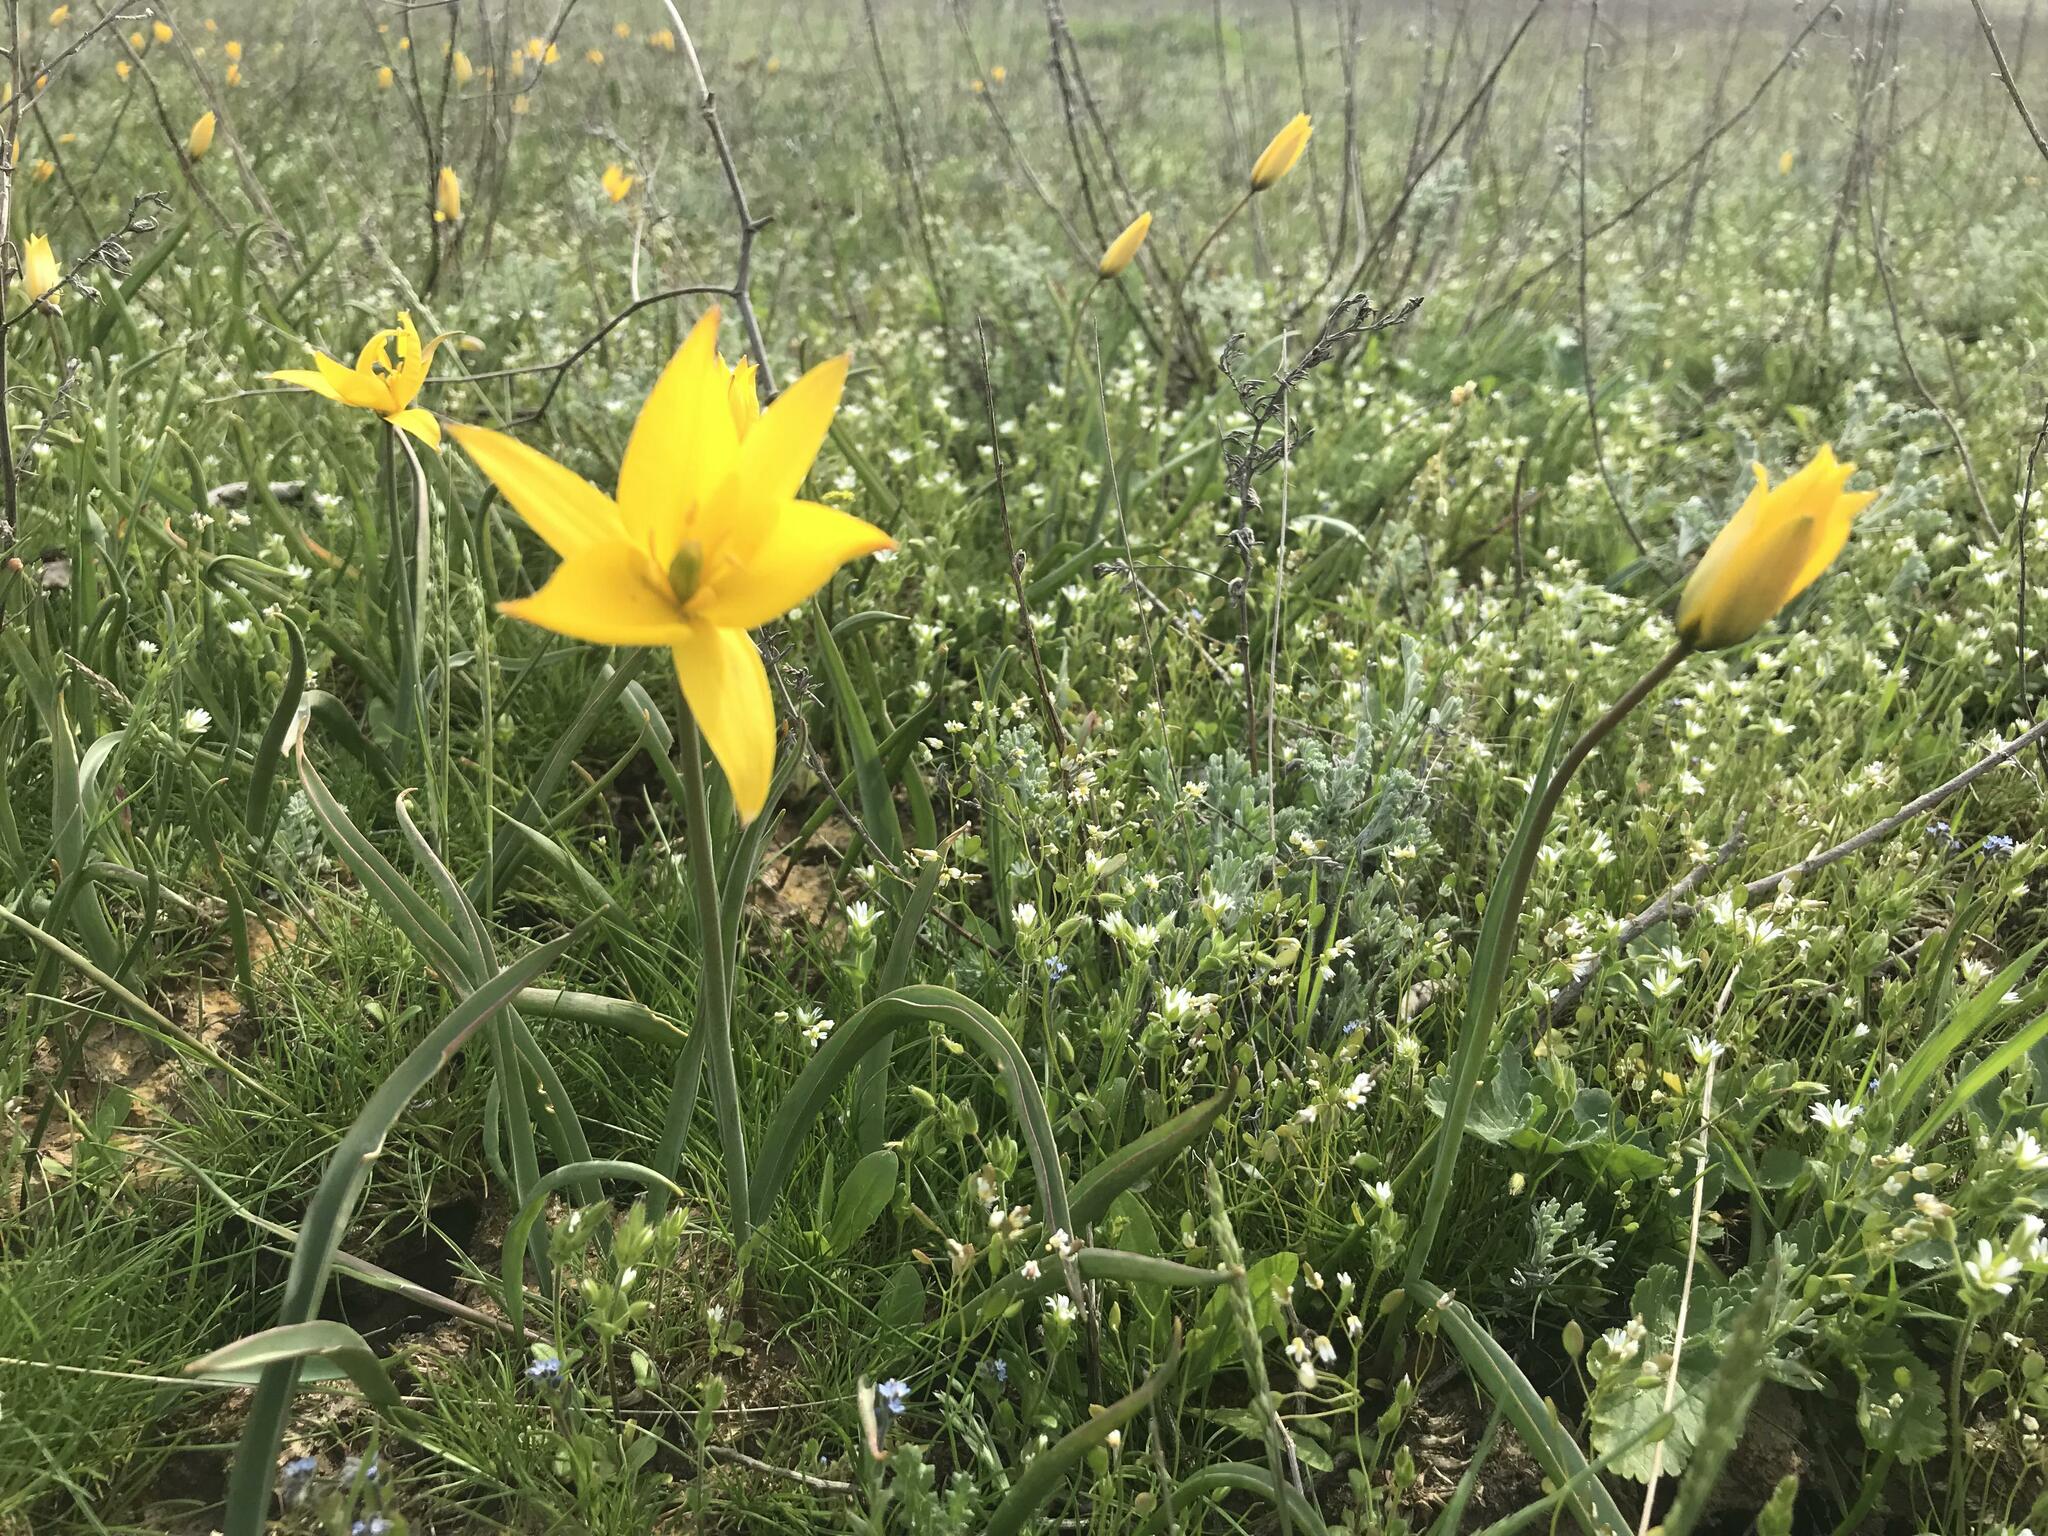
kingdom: Plantae
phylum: Tracheophyta
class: Liliopsida
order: Liliales
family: Liliaceae
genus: Tulipa
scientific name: Tulipa sylvestris
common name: Wild tulip
